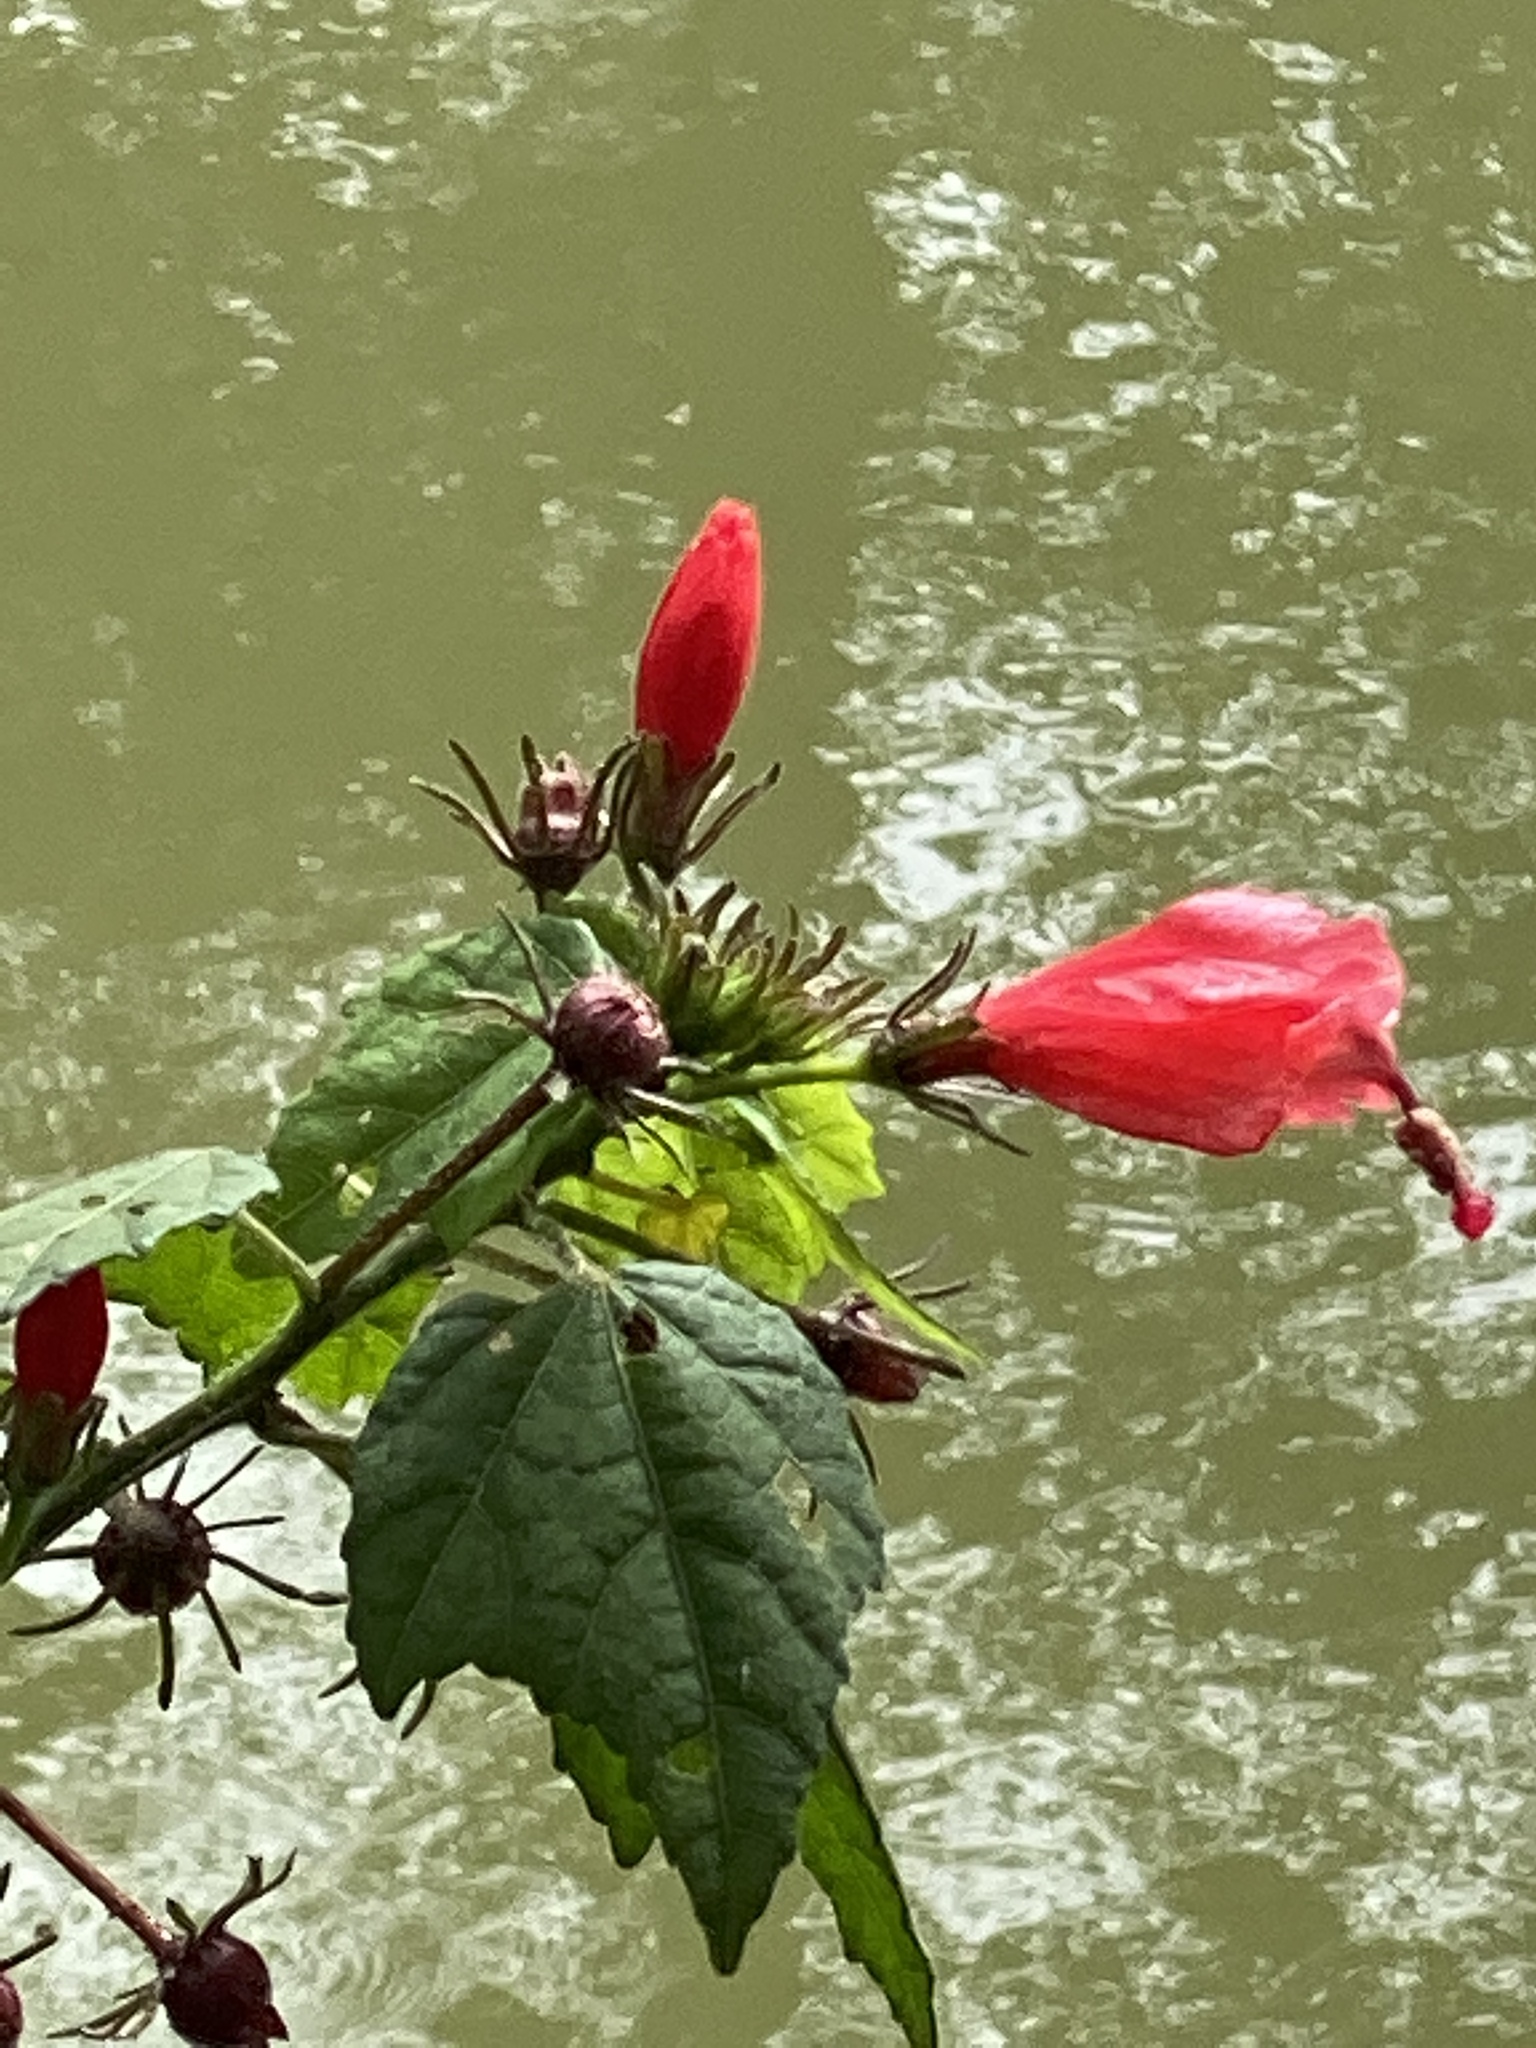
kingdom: Plantae
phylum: Tracheophyta
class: Magnoliopsida
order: Malvales
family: Malvaceae
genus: Malvaviscus
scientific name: Malvaviscus arboreus
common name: Wax mallow
